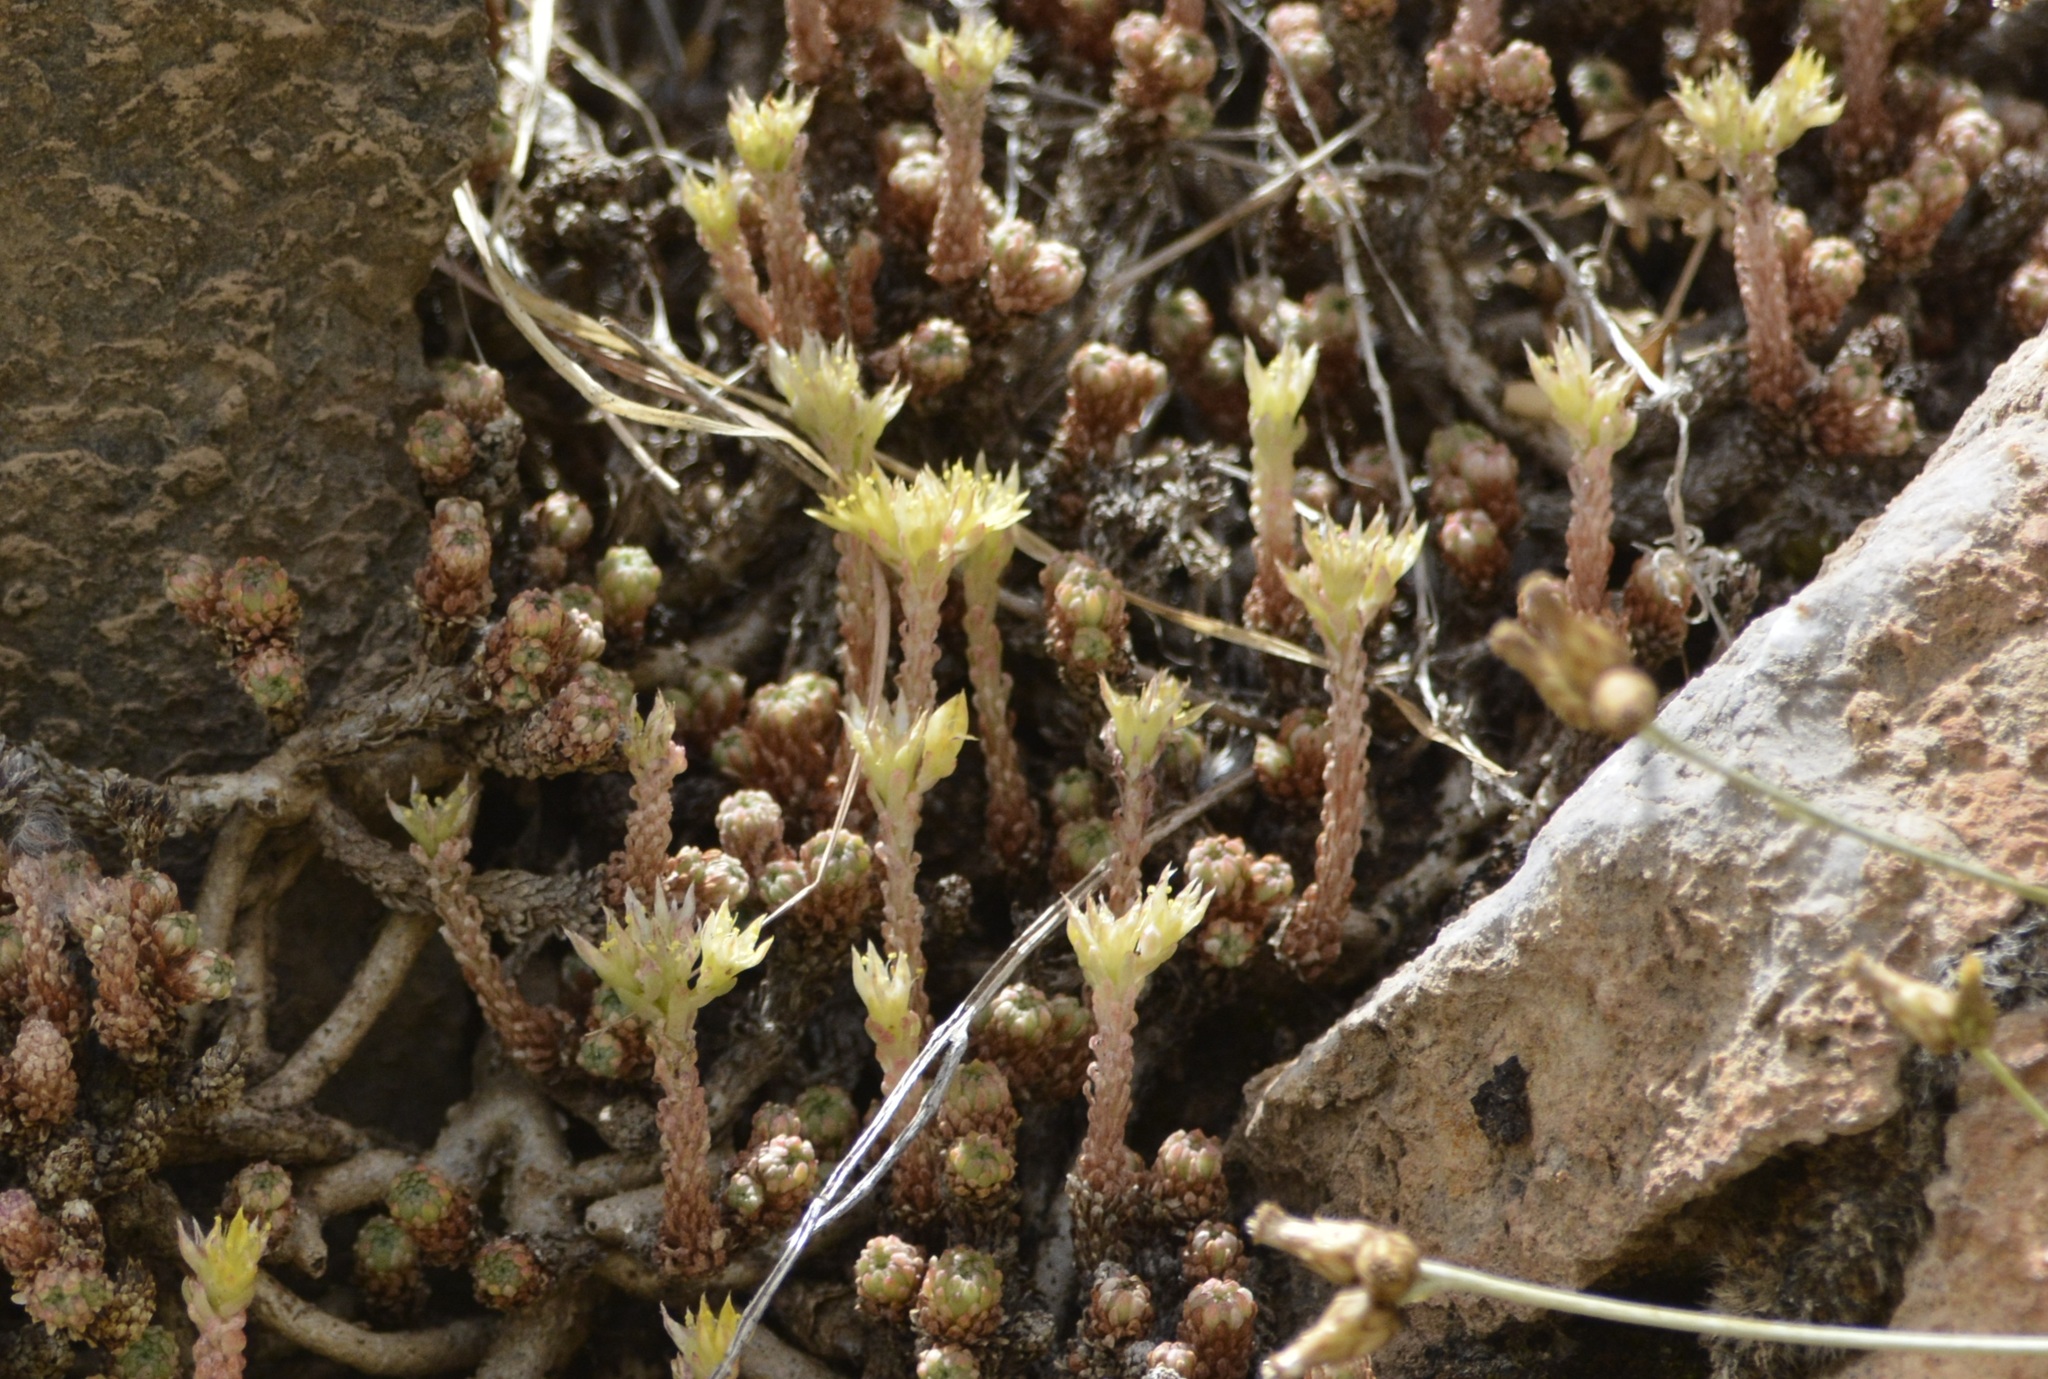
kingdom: Plantae
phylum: Tracheophyta
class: Magnoliopsida
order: Saxifragales
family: Crassulaceae
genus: Sedum
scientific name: Sedum multiceps
